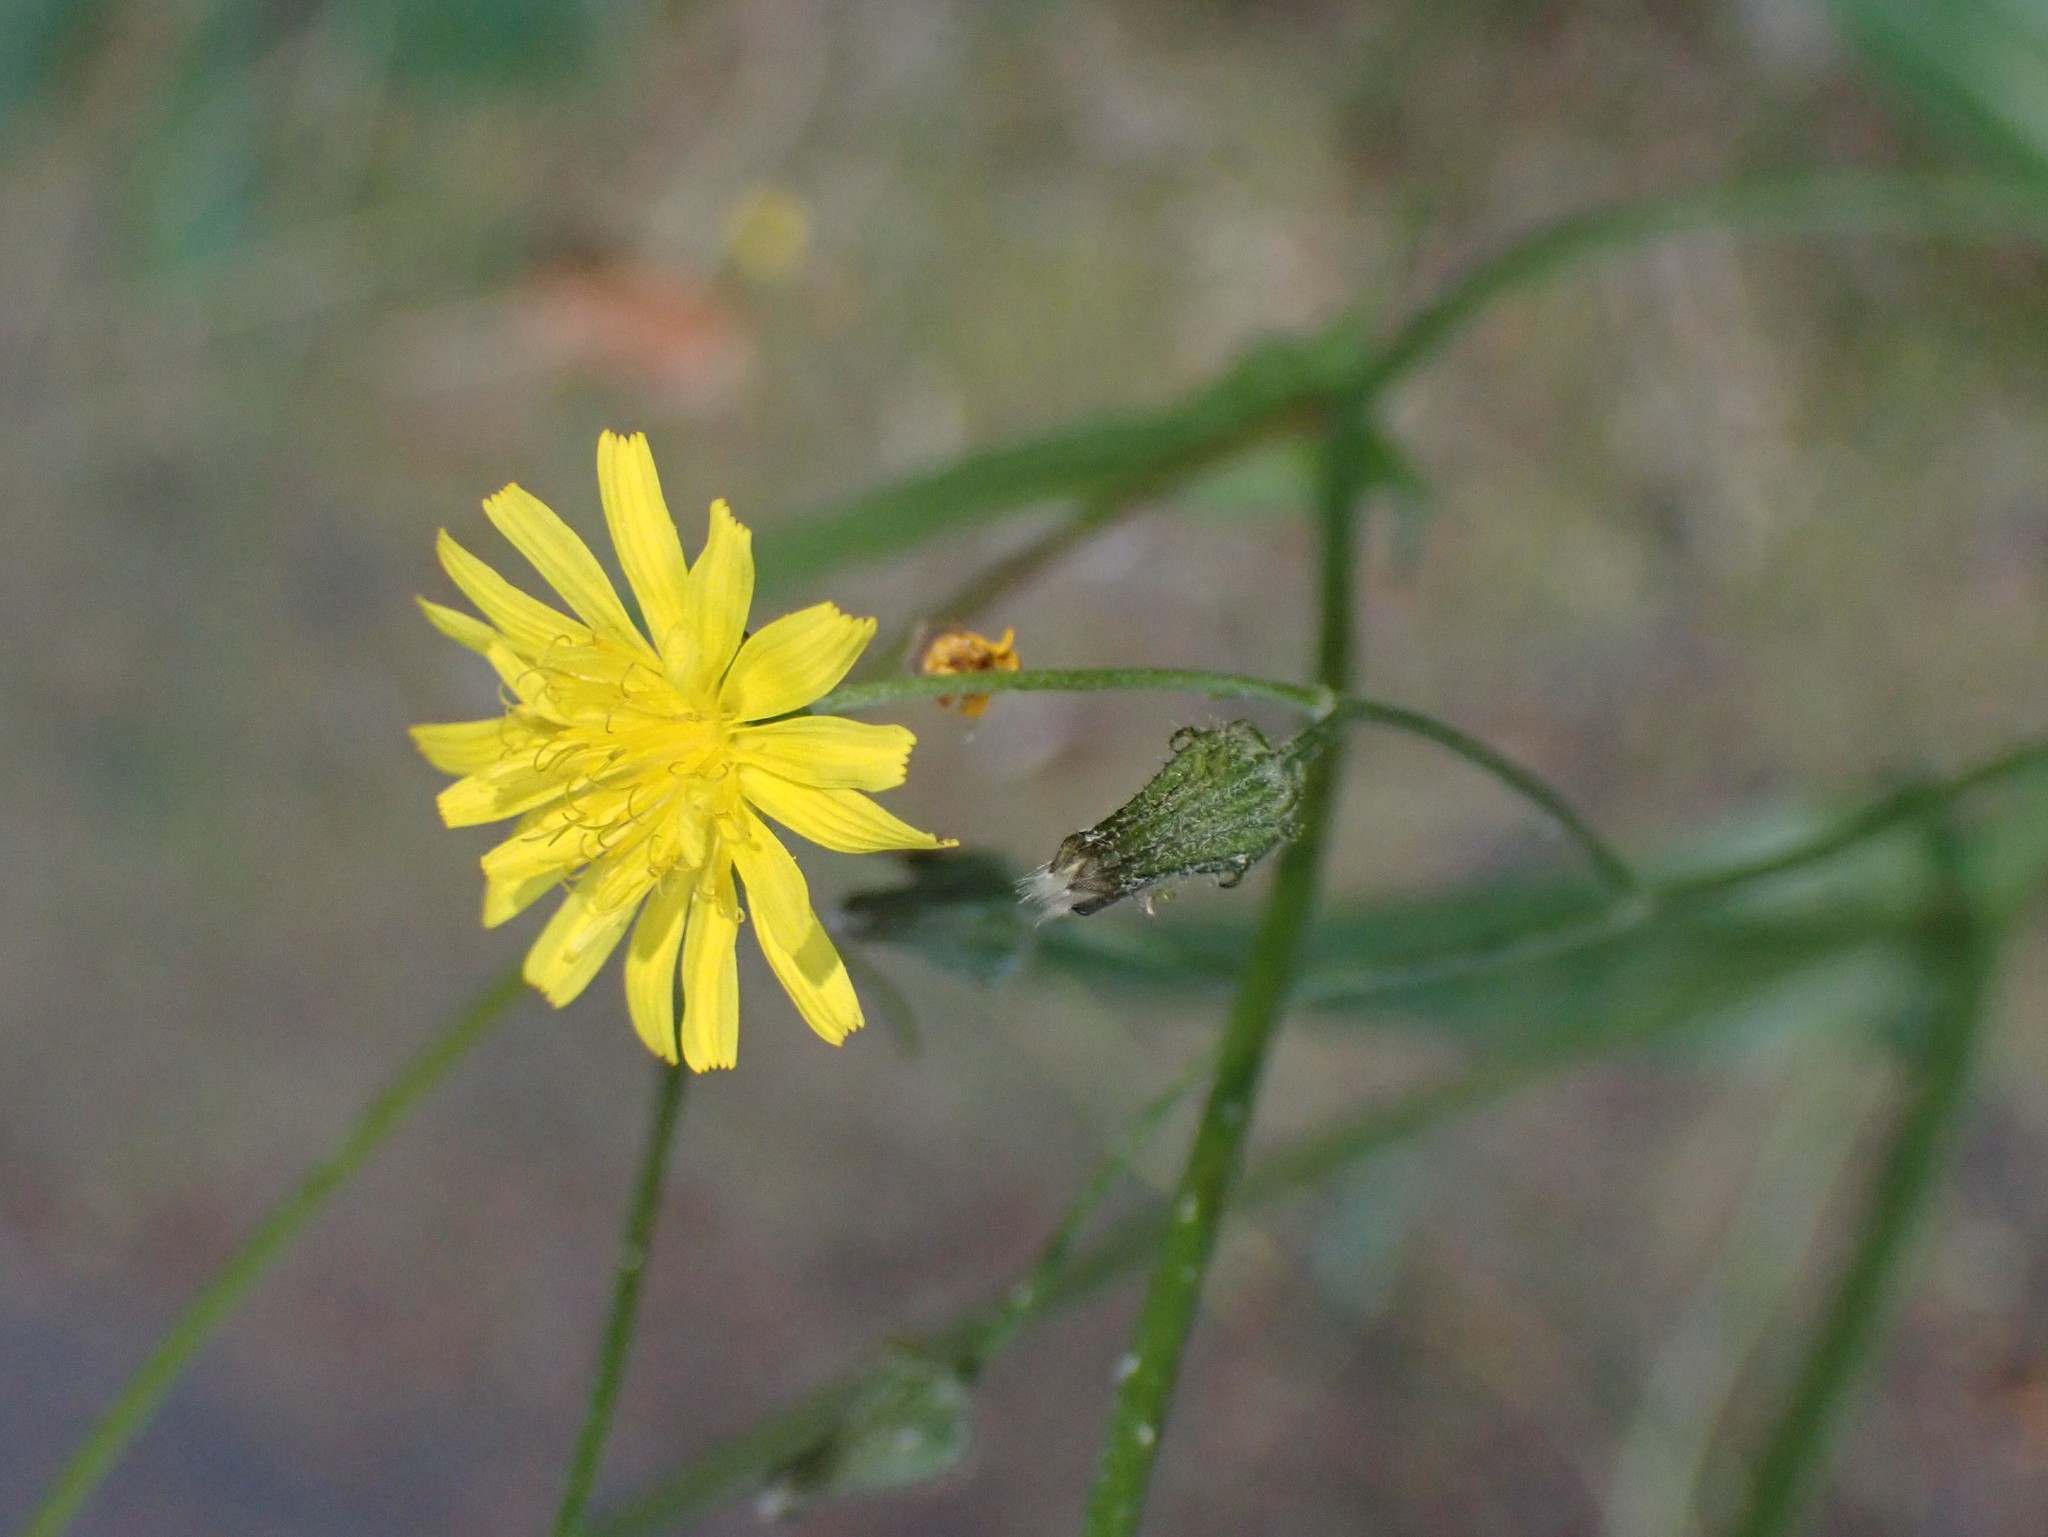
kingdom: Plantae
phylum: Tracheophyta
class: Magnoliopsida
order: Asterales
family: Asteraceae
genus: Crepis
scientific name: Crepis capillaris
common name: Smooth hawksbeard
